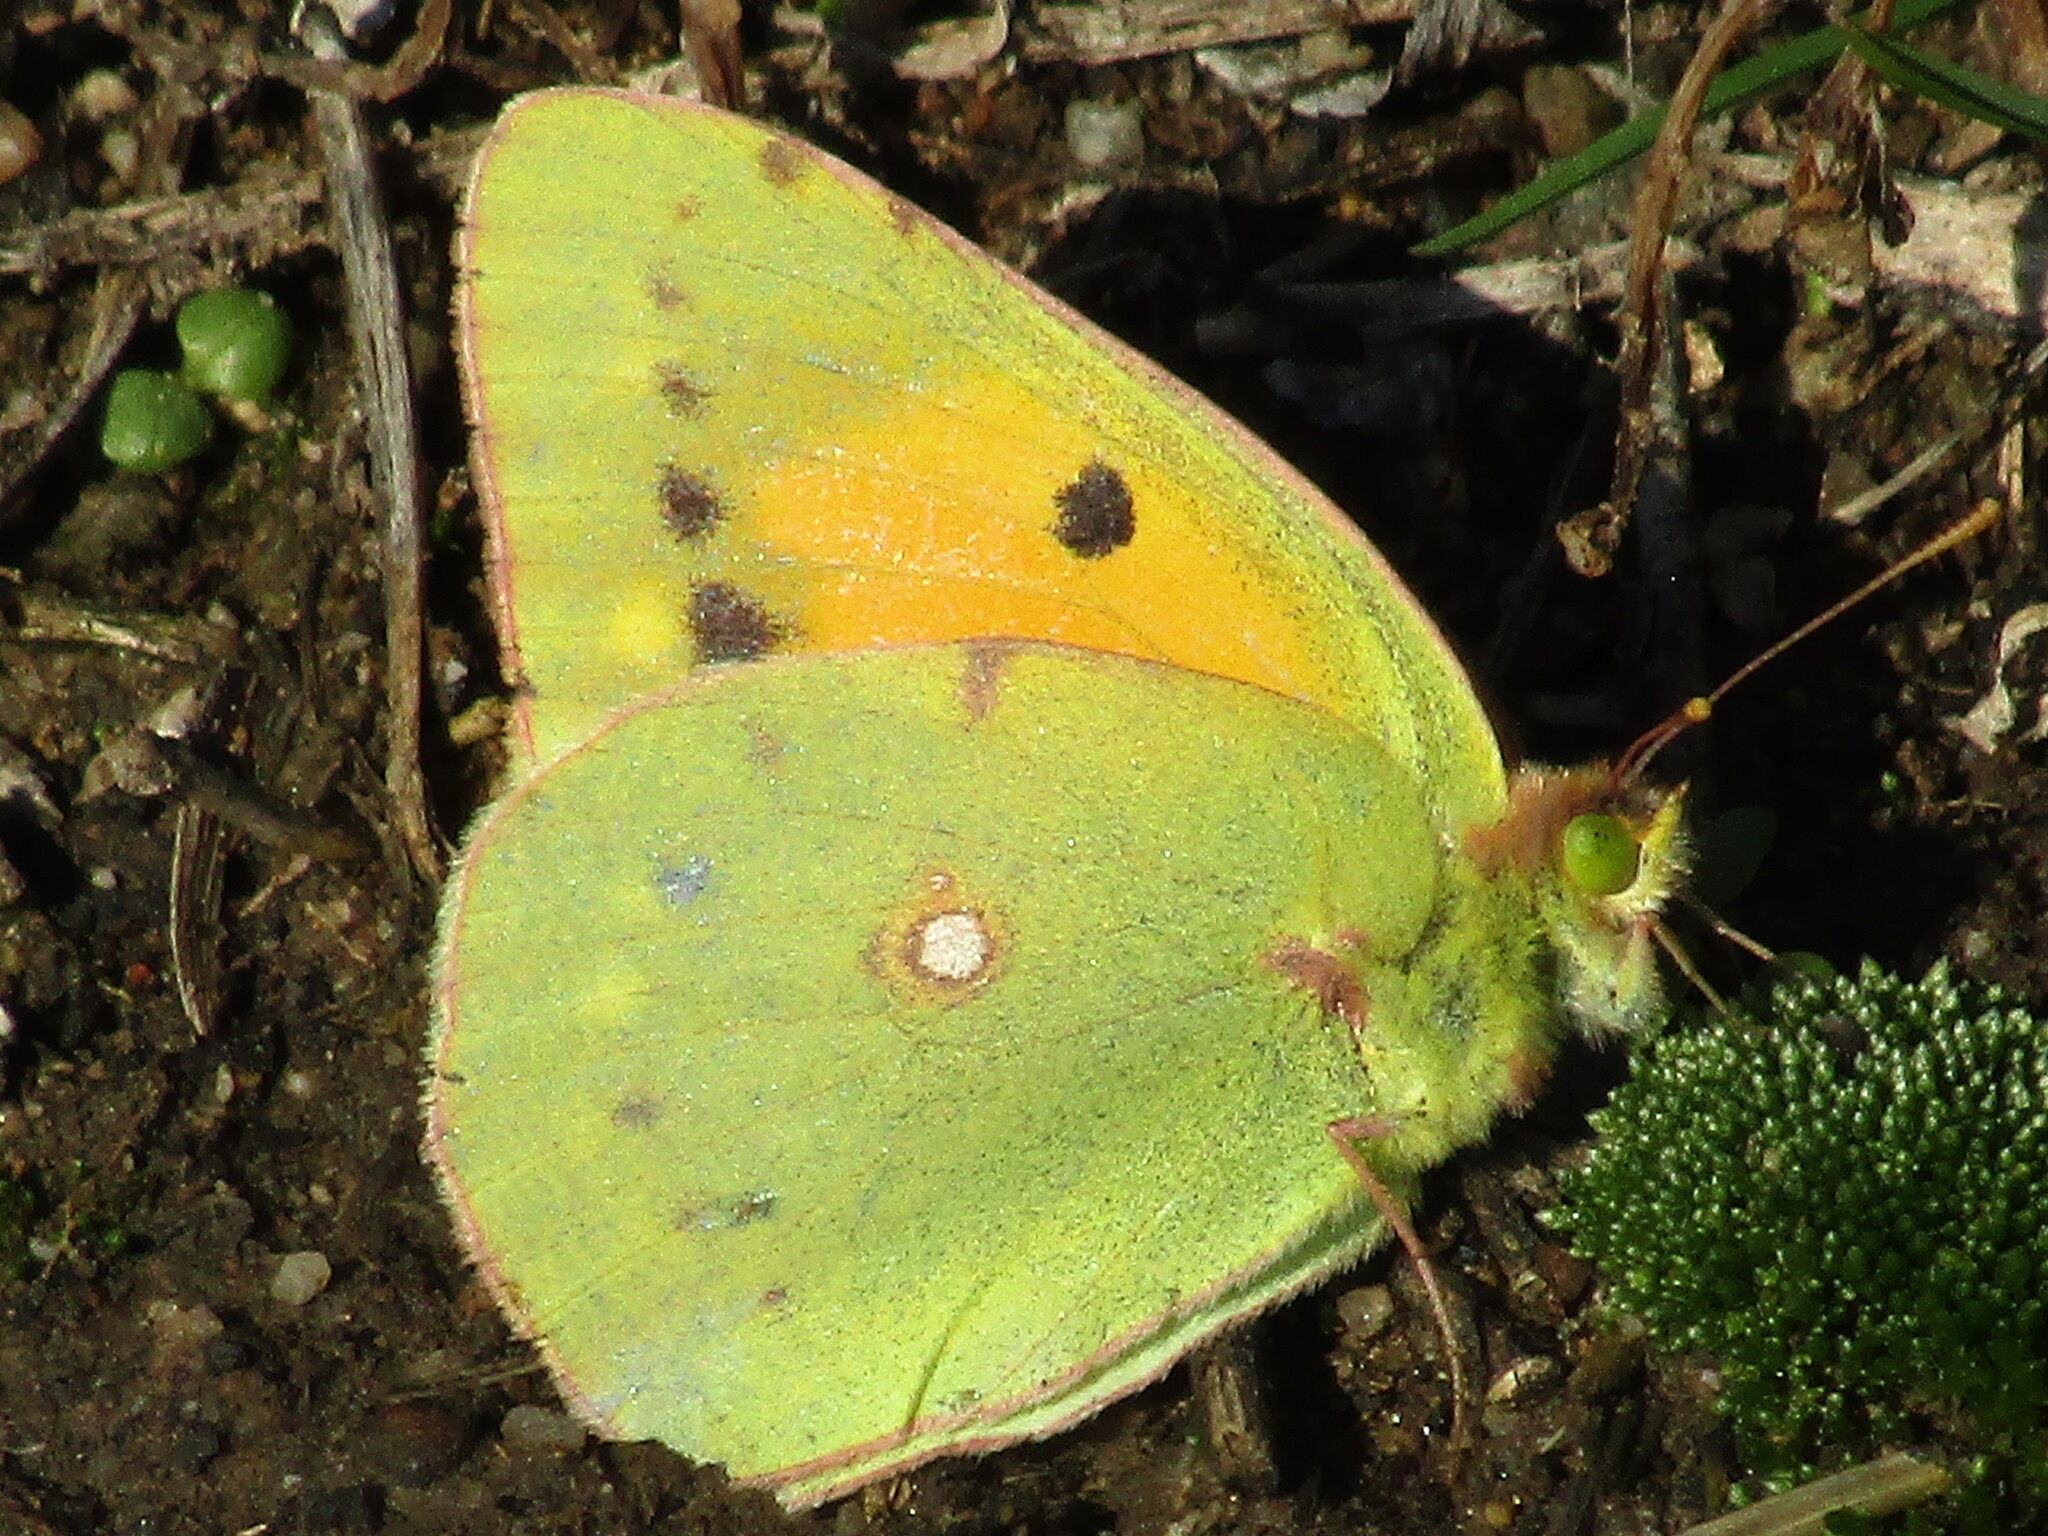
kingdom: Animalia
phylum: Arthropoda
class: Insecta
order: Lepidoptera
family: Pieridae
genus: Colias
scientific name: Colias croceus
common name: Clouded yellow
